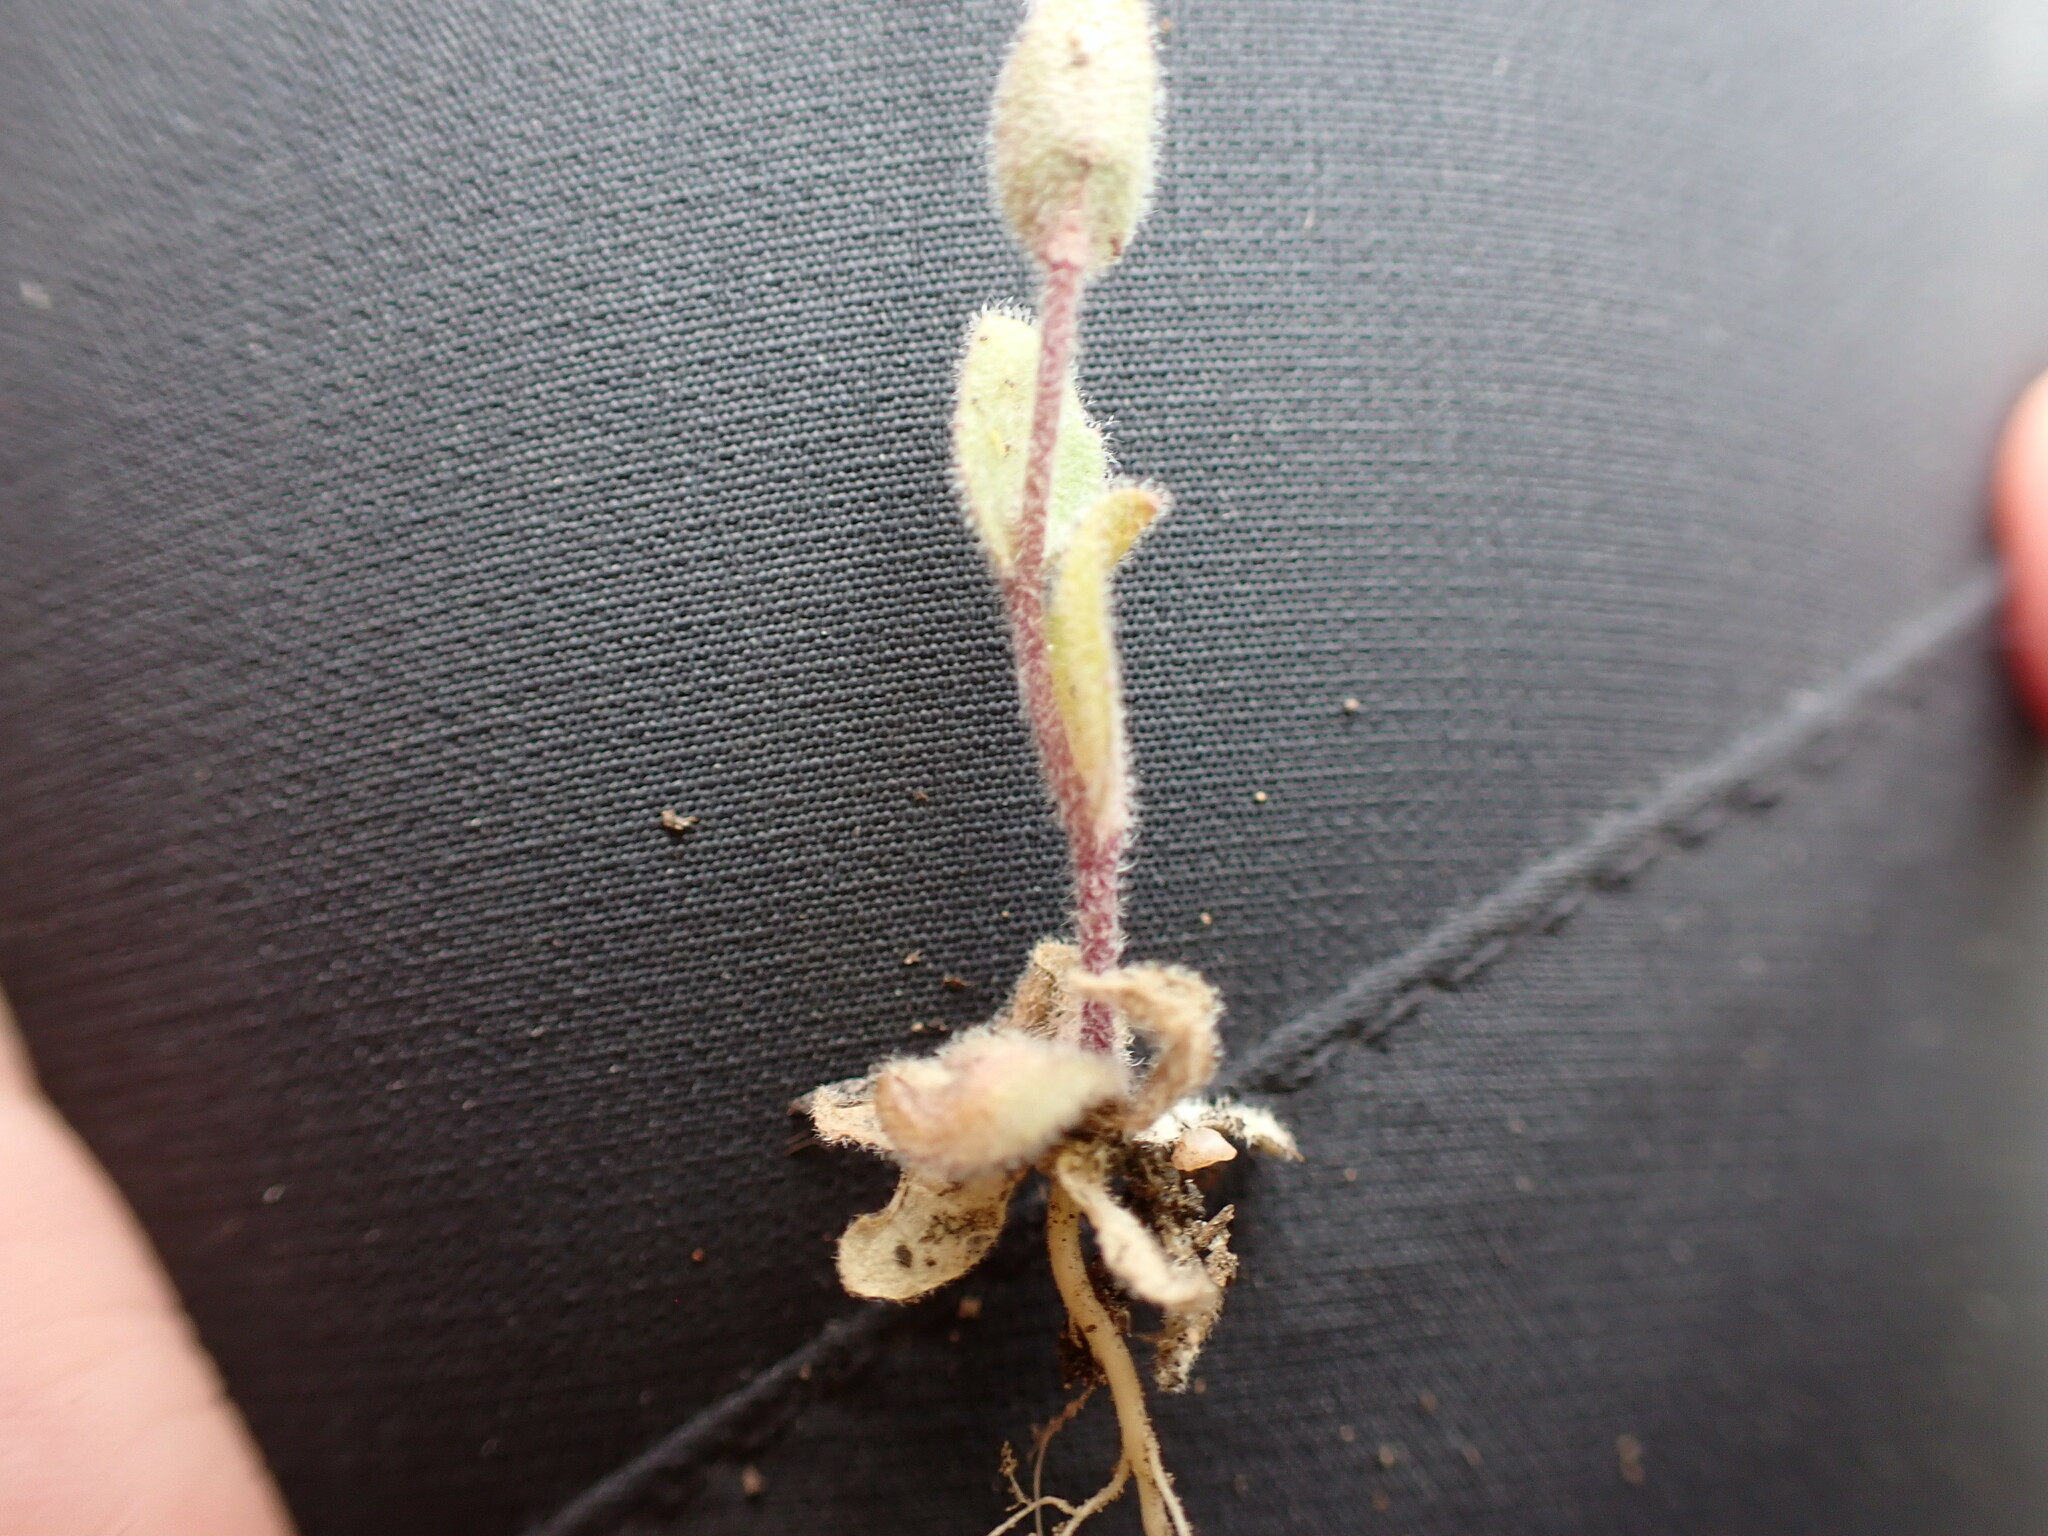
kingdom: Plantae
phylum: Tracheophyta
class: Magnoliopsida
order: Brassicales
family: Brassicaceae
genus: Draba
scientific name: Draba nemorosa
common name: Wood whitlow-grass
